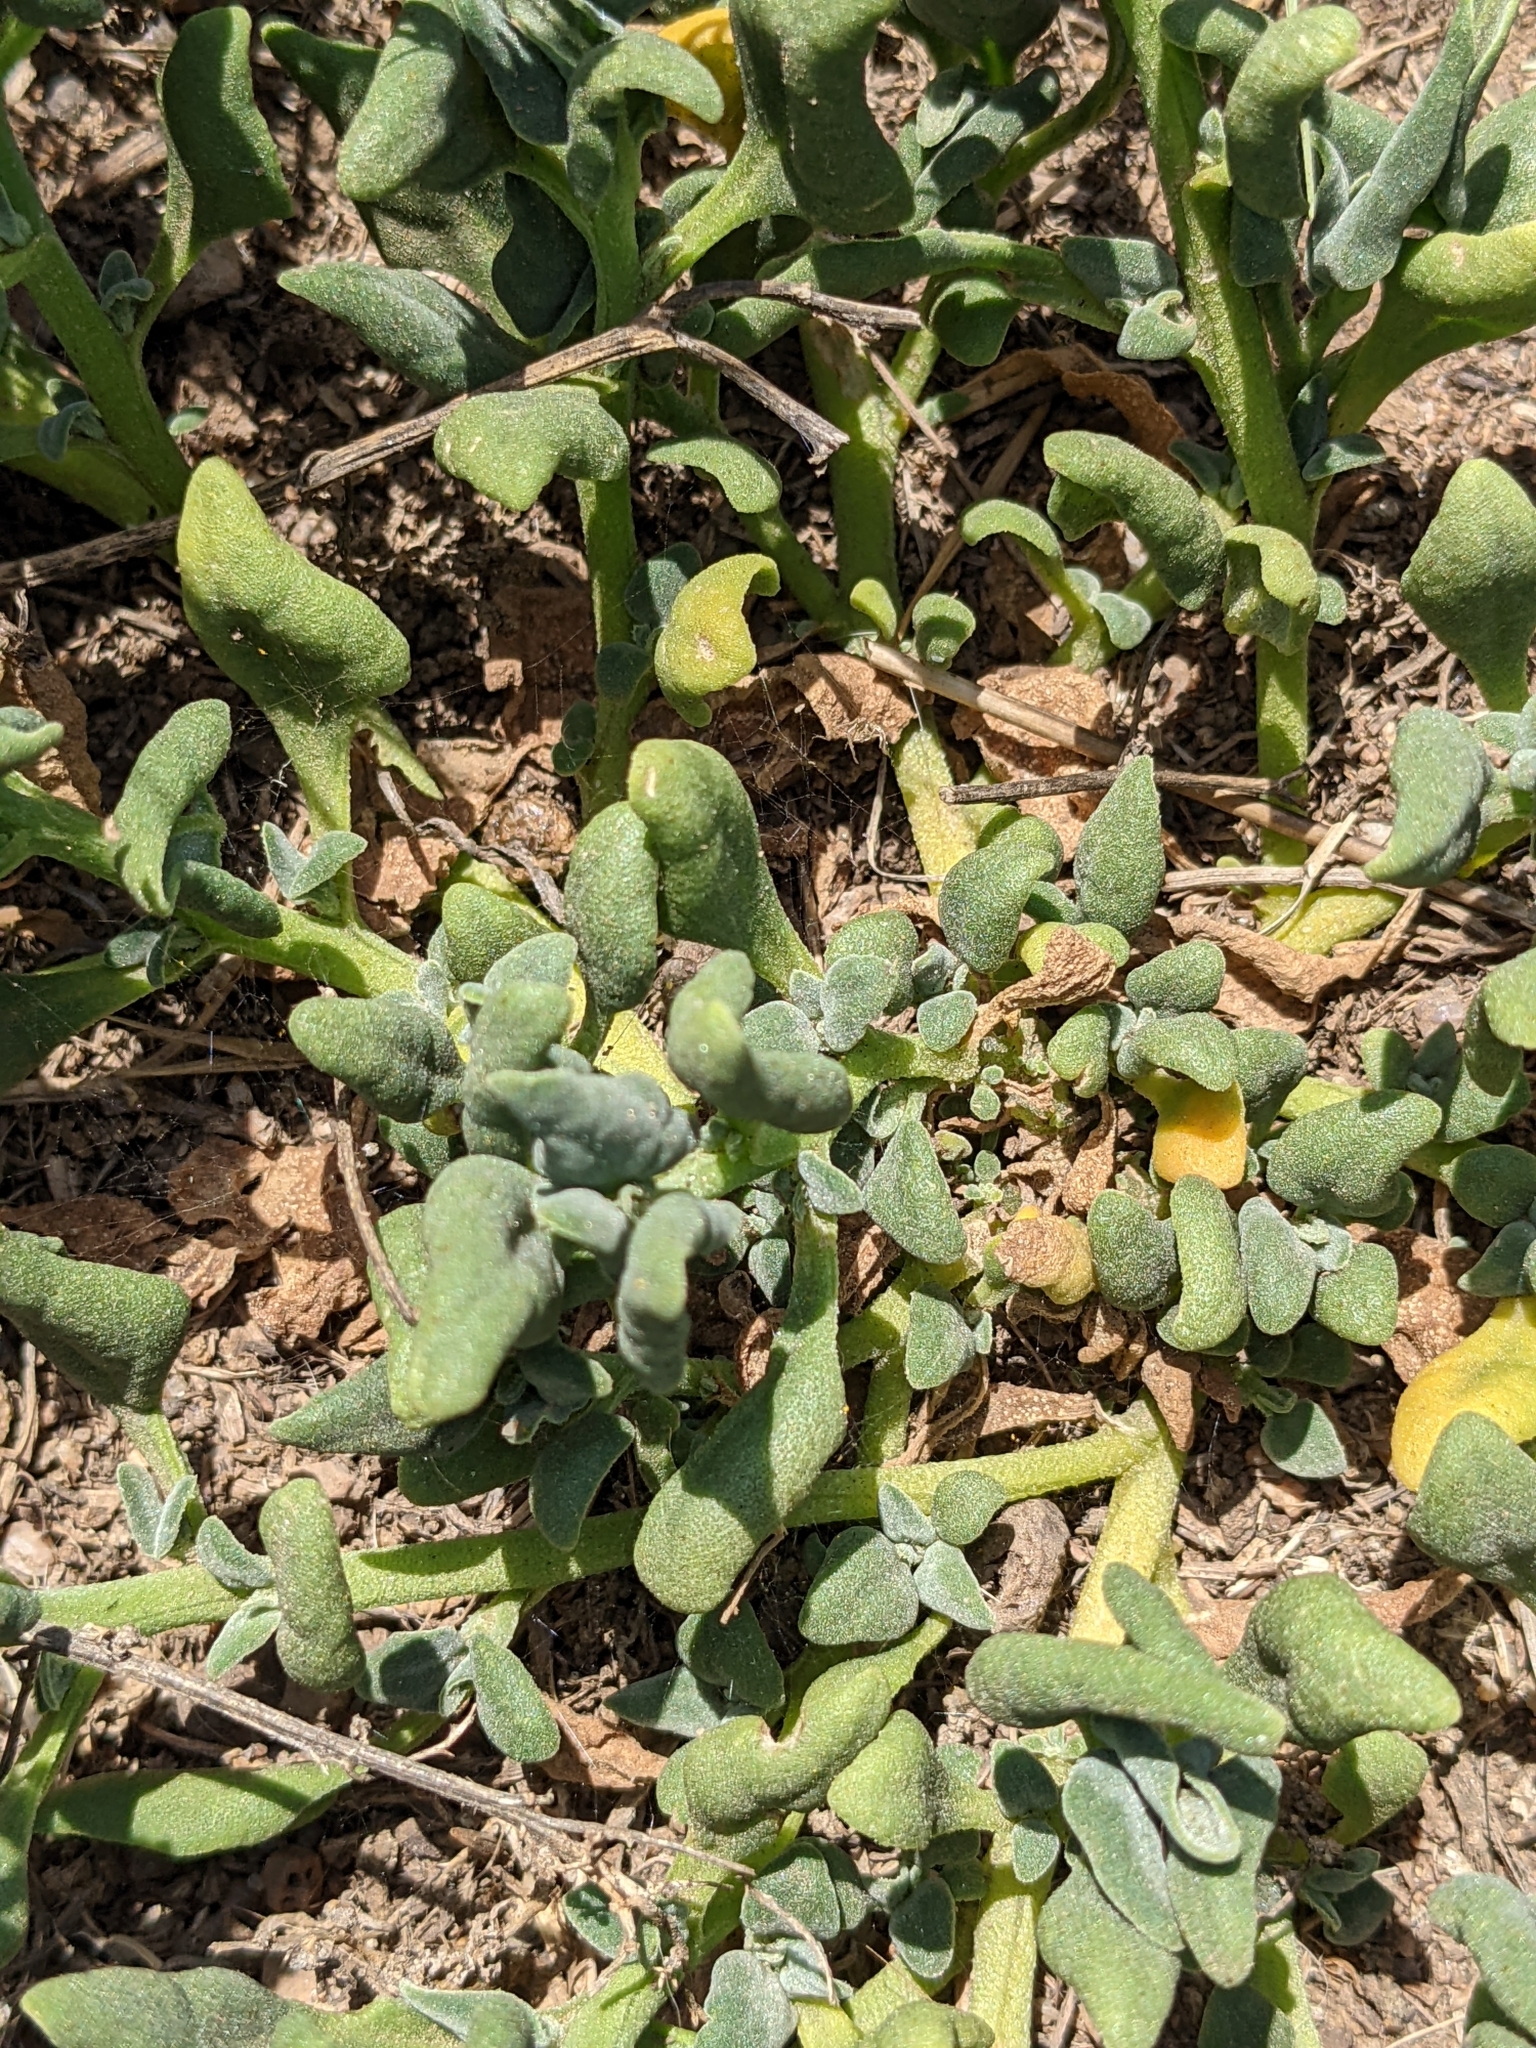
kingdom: Plantae
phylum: Tracheophyta
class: Magnoliopsida
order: Caryophyllales
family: Aizoaceae
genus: Tetragonia
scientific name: Tetragonia tetragonoides
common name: New zealand-spinach
